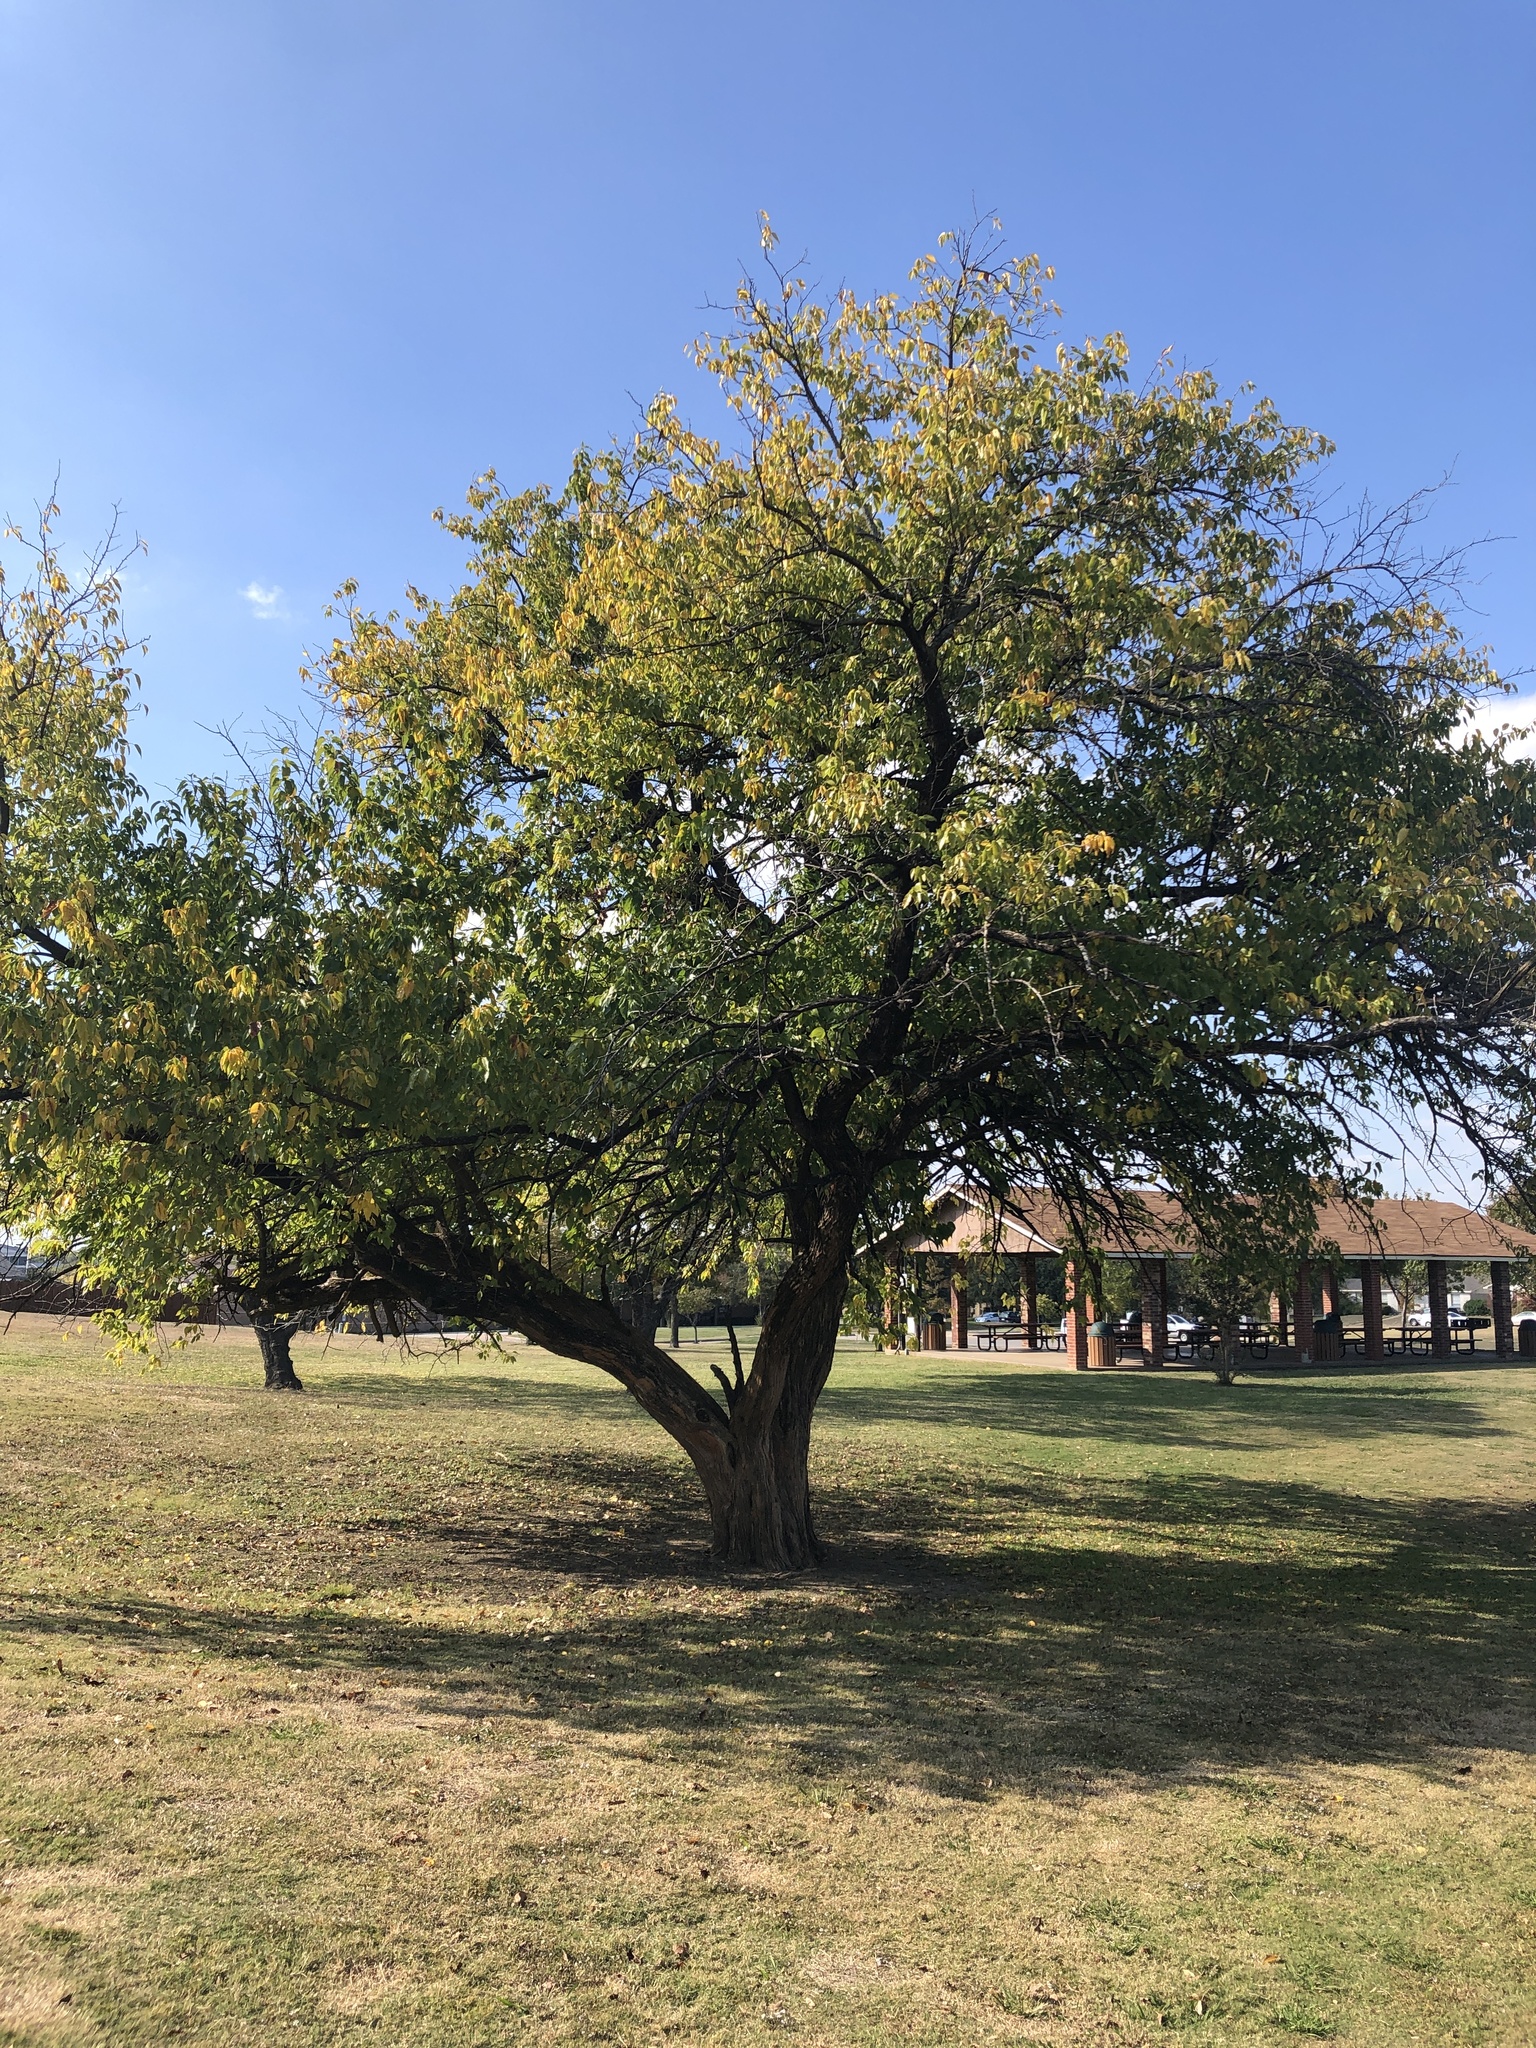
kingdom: Plantae
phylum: Tracheophyta
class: Magnoliopsida
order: Rosales
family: Moraceae
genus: Maclura
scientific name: Maclura pomifera
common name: Osage-orange
